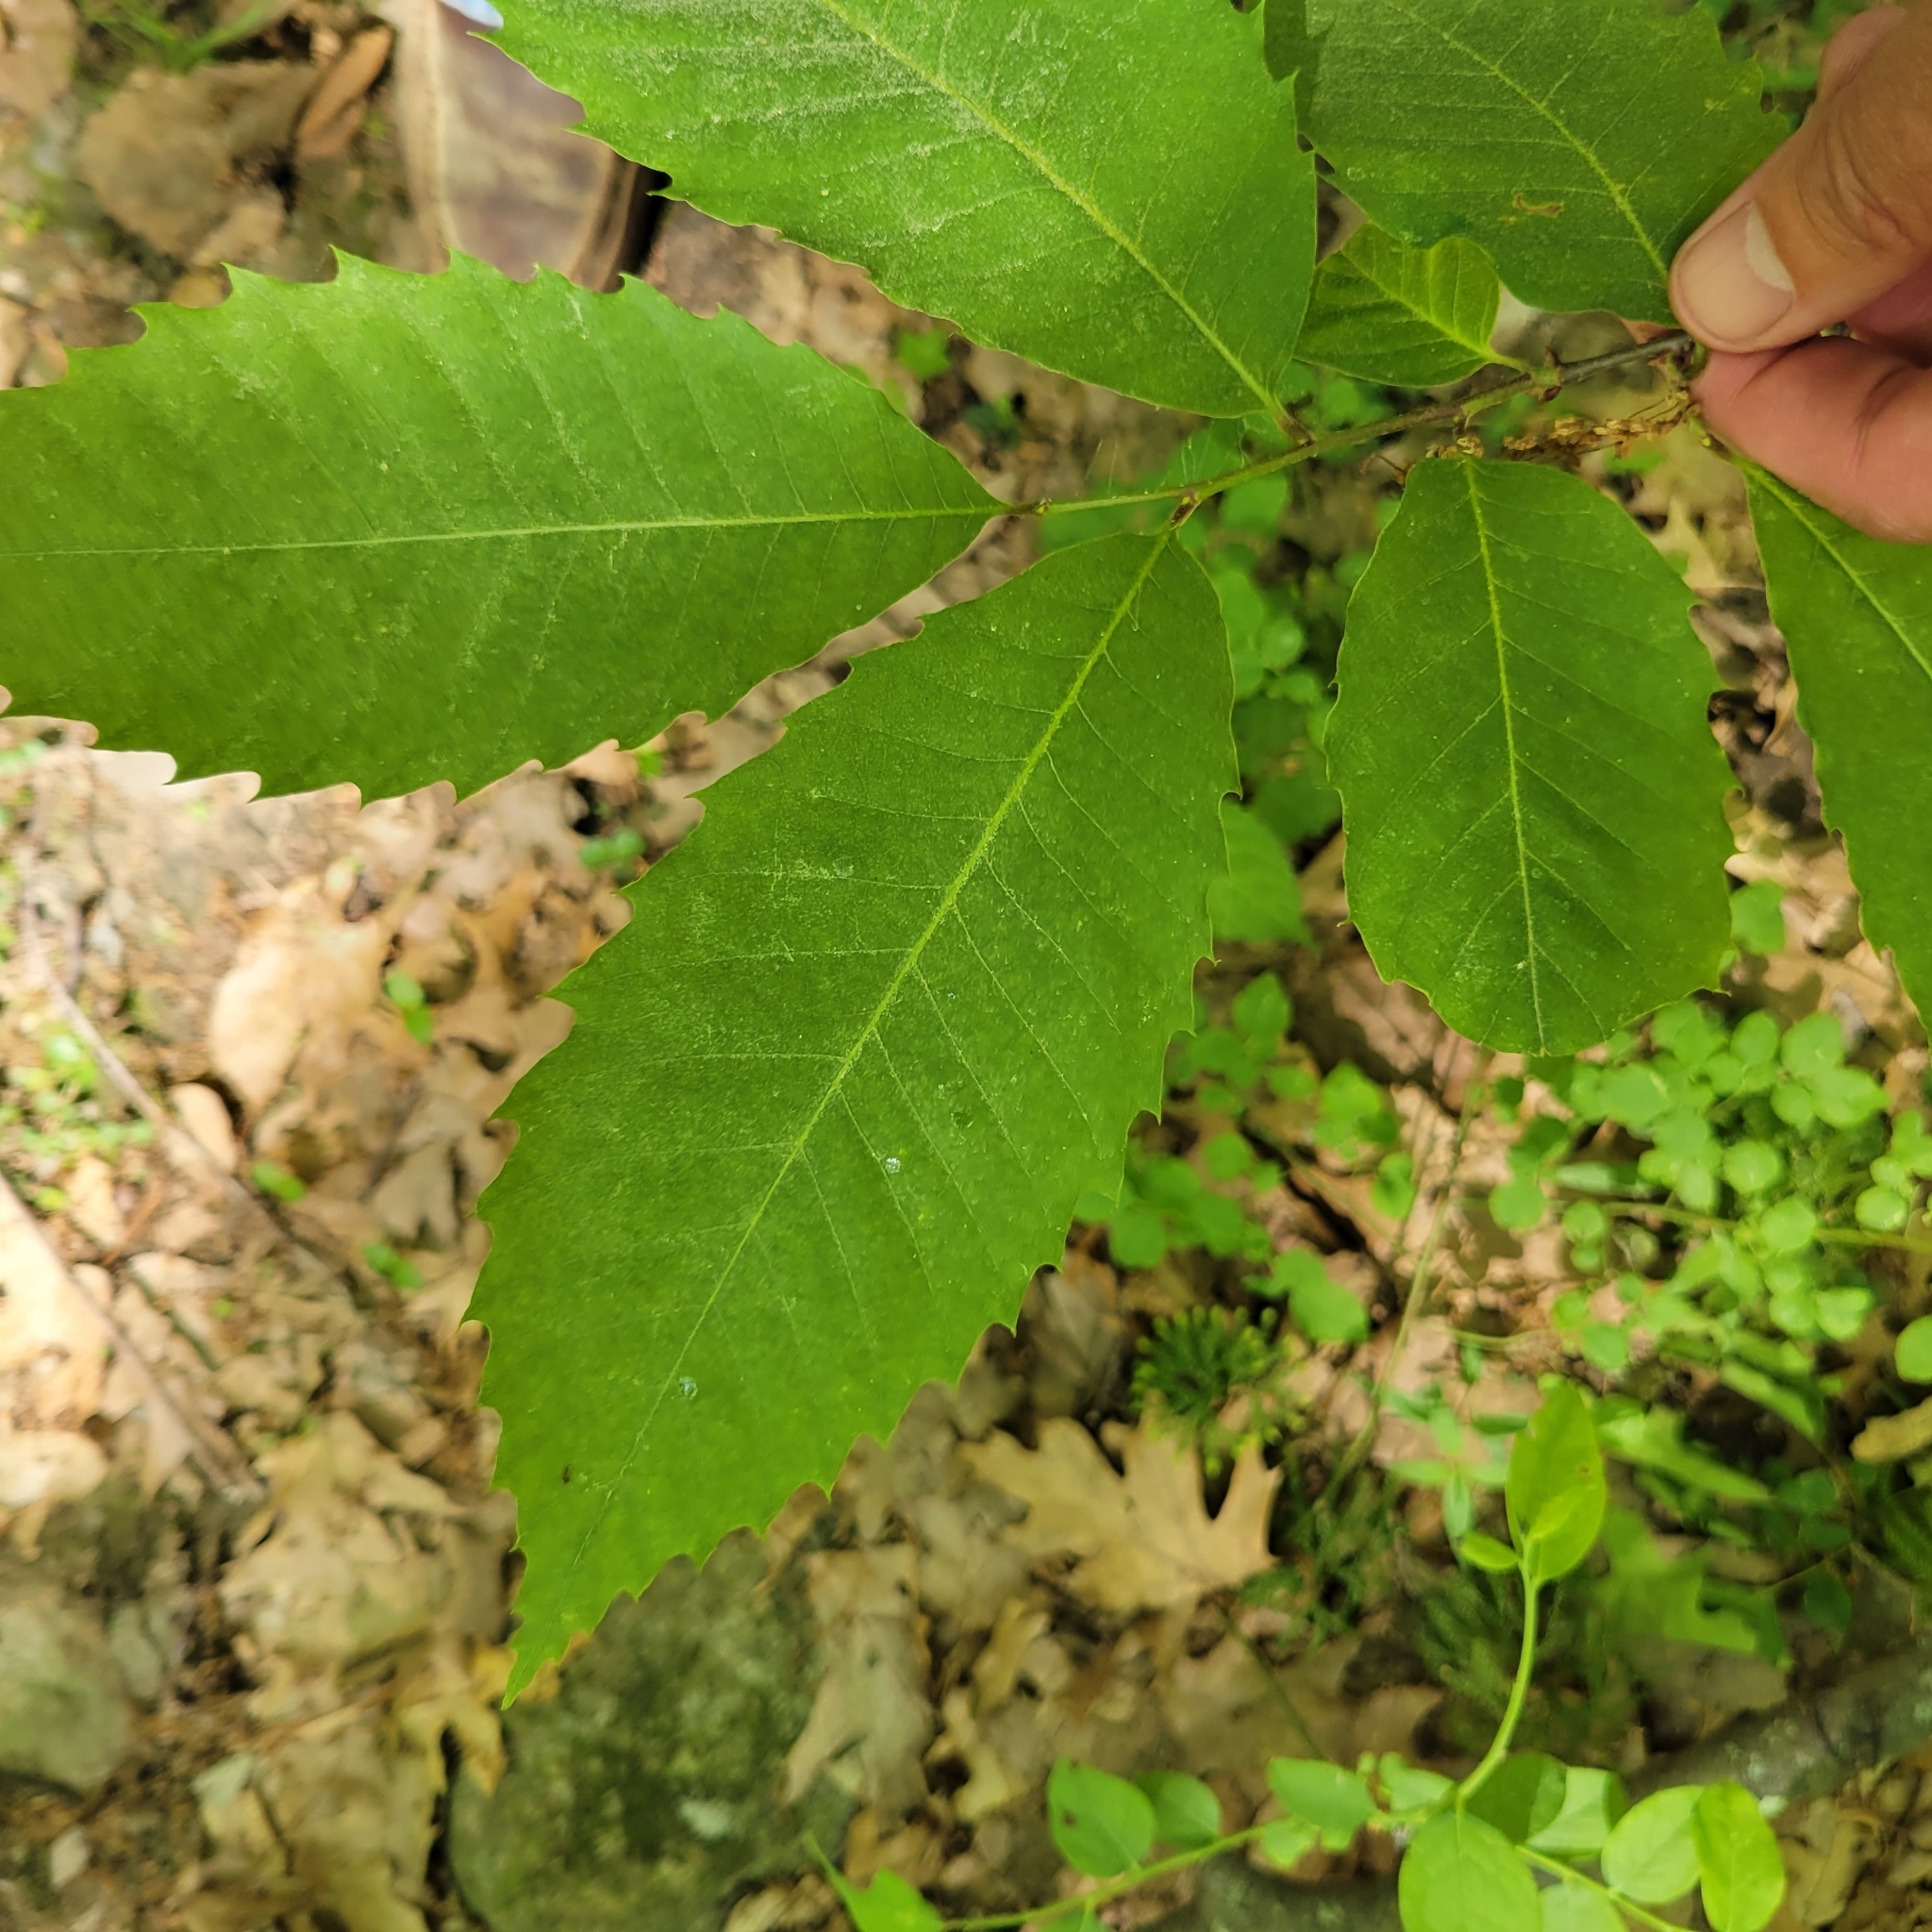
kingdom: Plantae
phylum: Tracheophyta
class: Magnoliopsida
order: Fagales
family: Fagaceae
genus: Castanea
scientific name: Castanea dentata
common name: American chestnut
